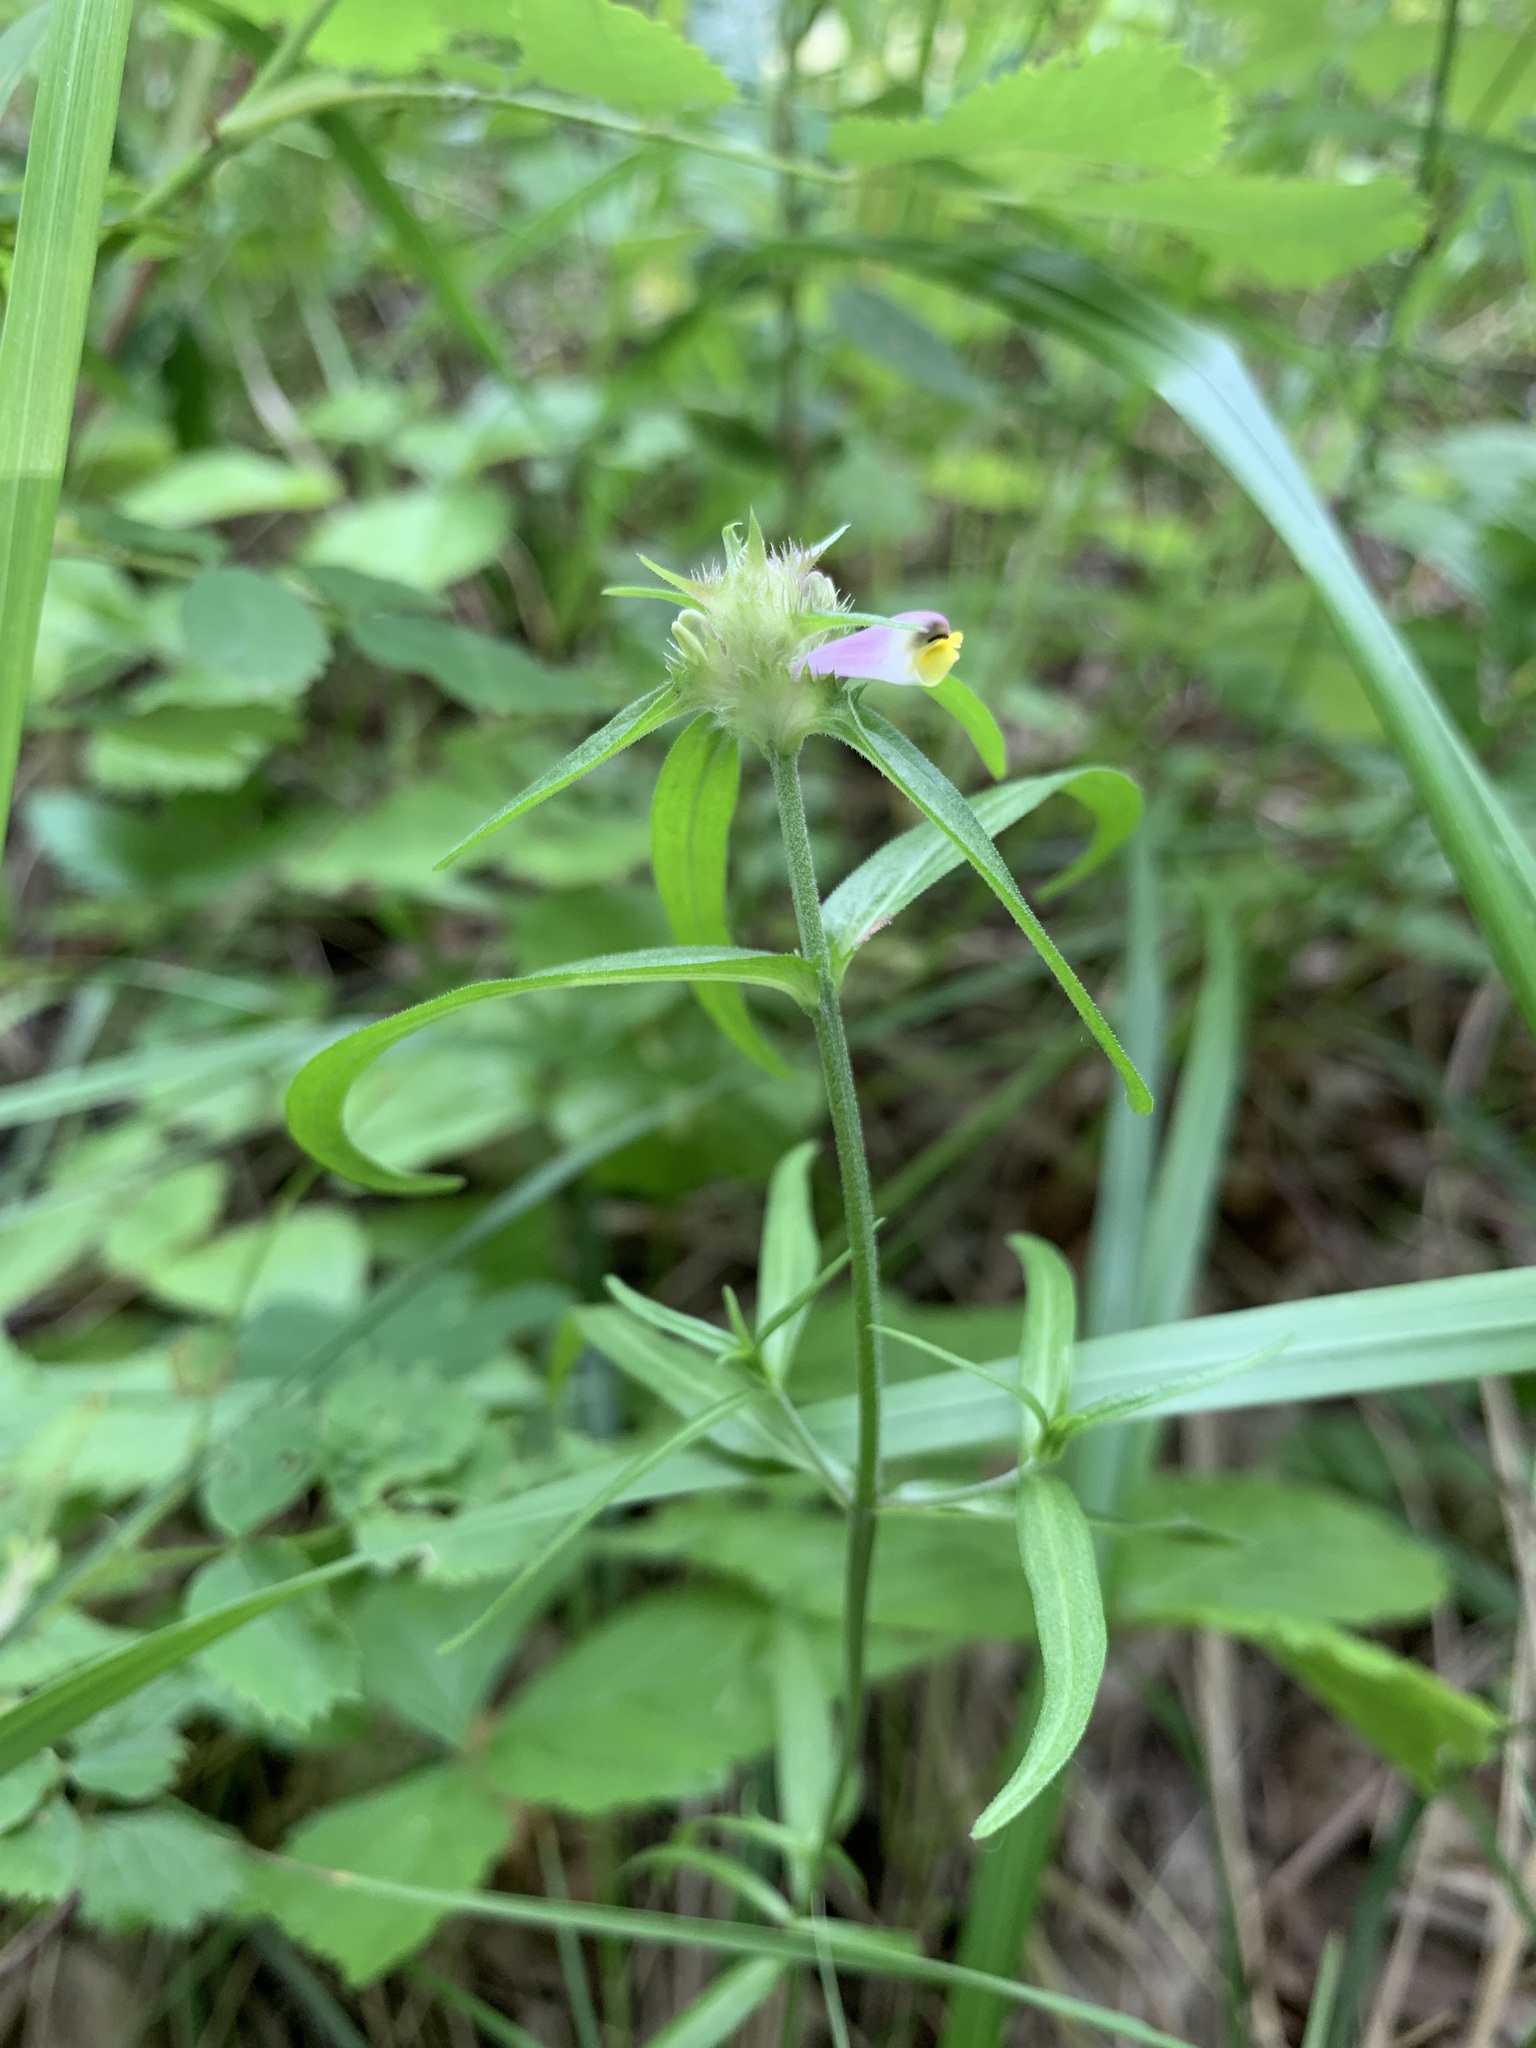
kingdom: Plantae
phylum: Tracheophyta
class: Magnoliopsida
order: Lamiales
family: Orobanchaceae
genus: Melampyrum
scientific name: Melampyrum cristatum
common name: Crested cow-wheat
